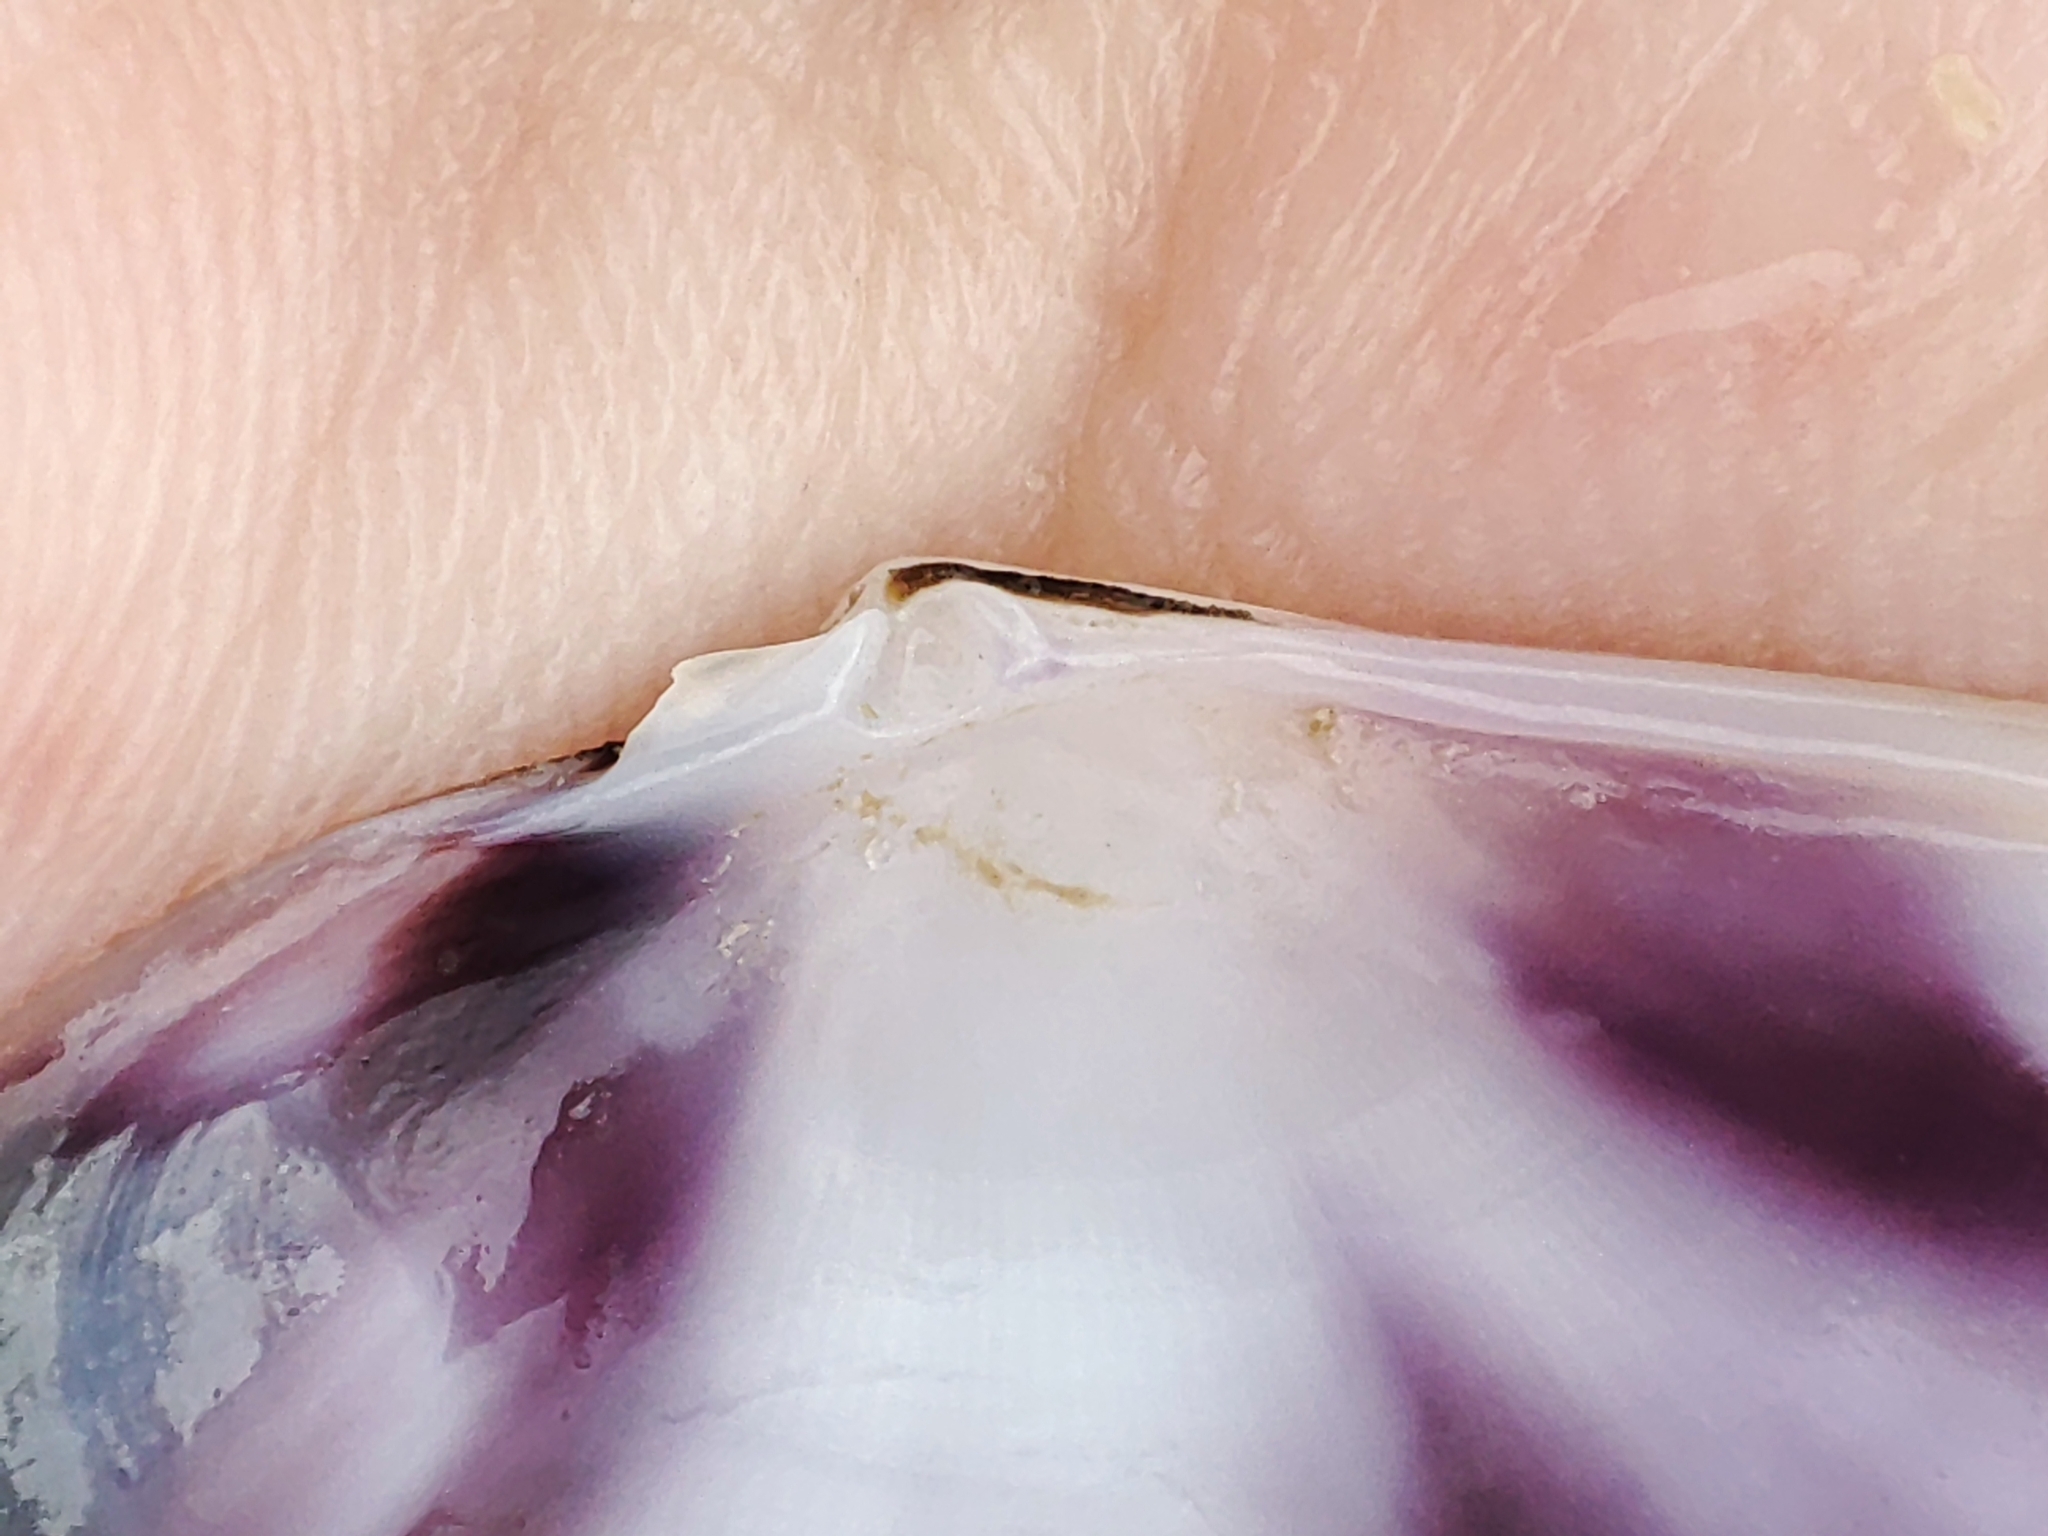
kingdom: Animalia
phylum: Mollusca
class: Bivalvia
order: Cardiida
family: Donacidae
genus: Donax
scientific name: Donax trunculus
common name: Truncate donax
